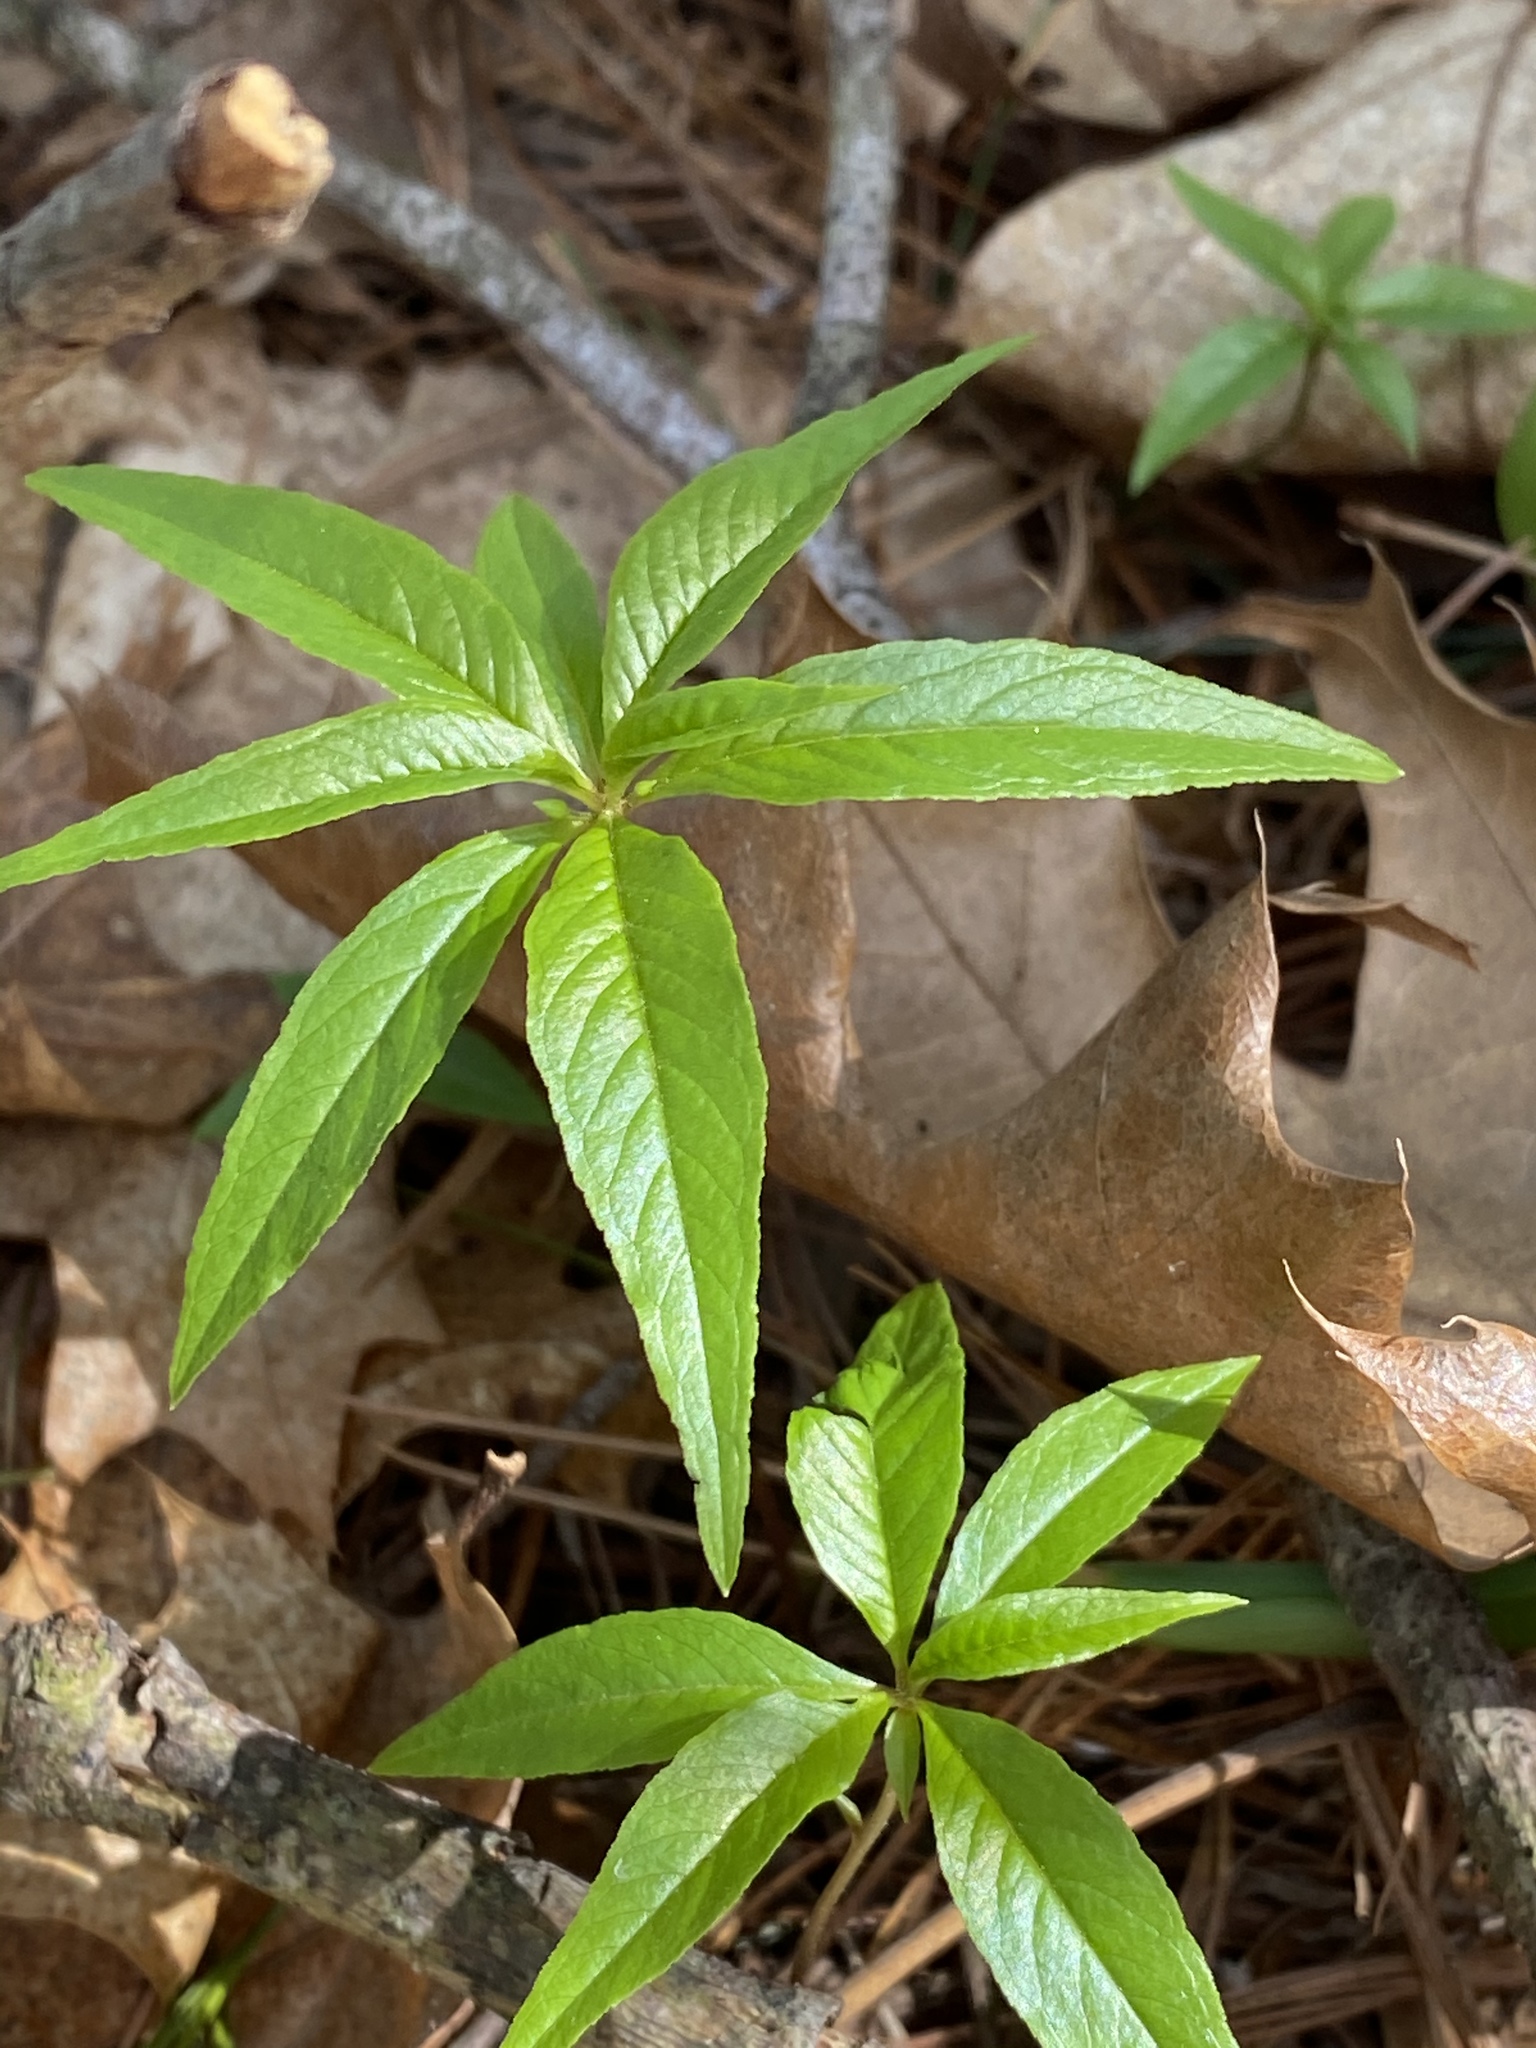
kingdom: Plantae
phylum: Tracheophyta
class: Magnoliopsida
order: Ericales
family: Primulaceae
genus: Lysimachia
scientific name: Lysimachia borealis
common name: American starflower
